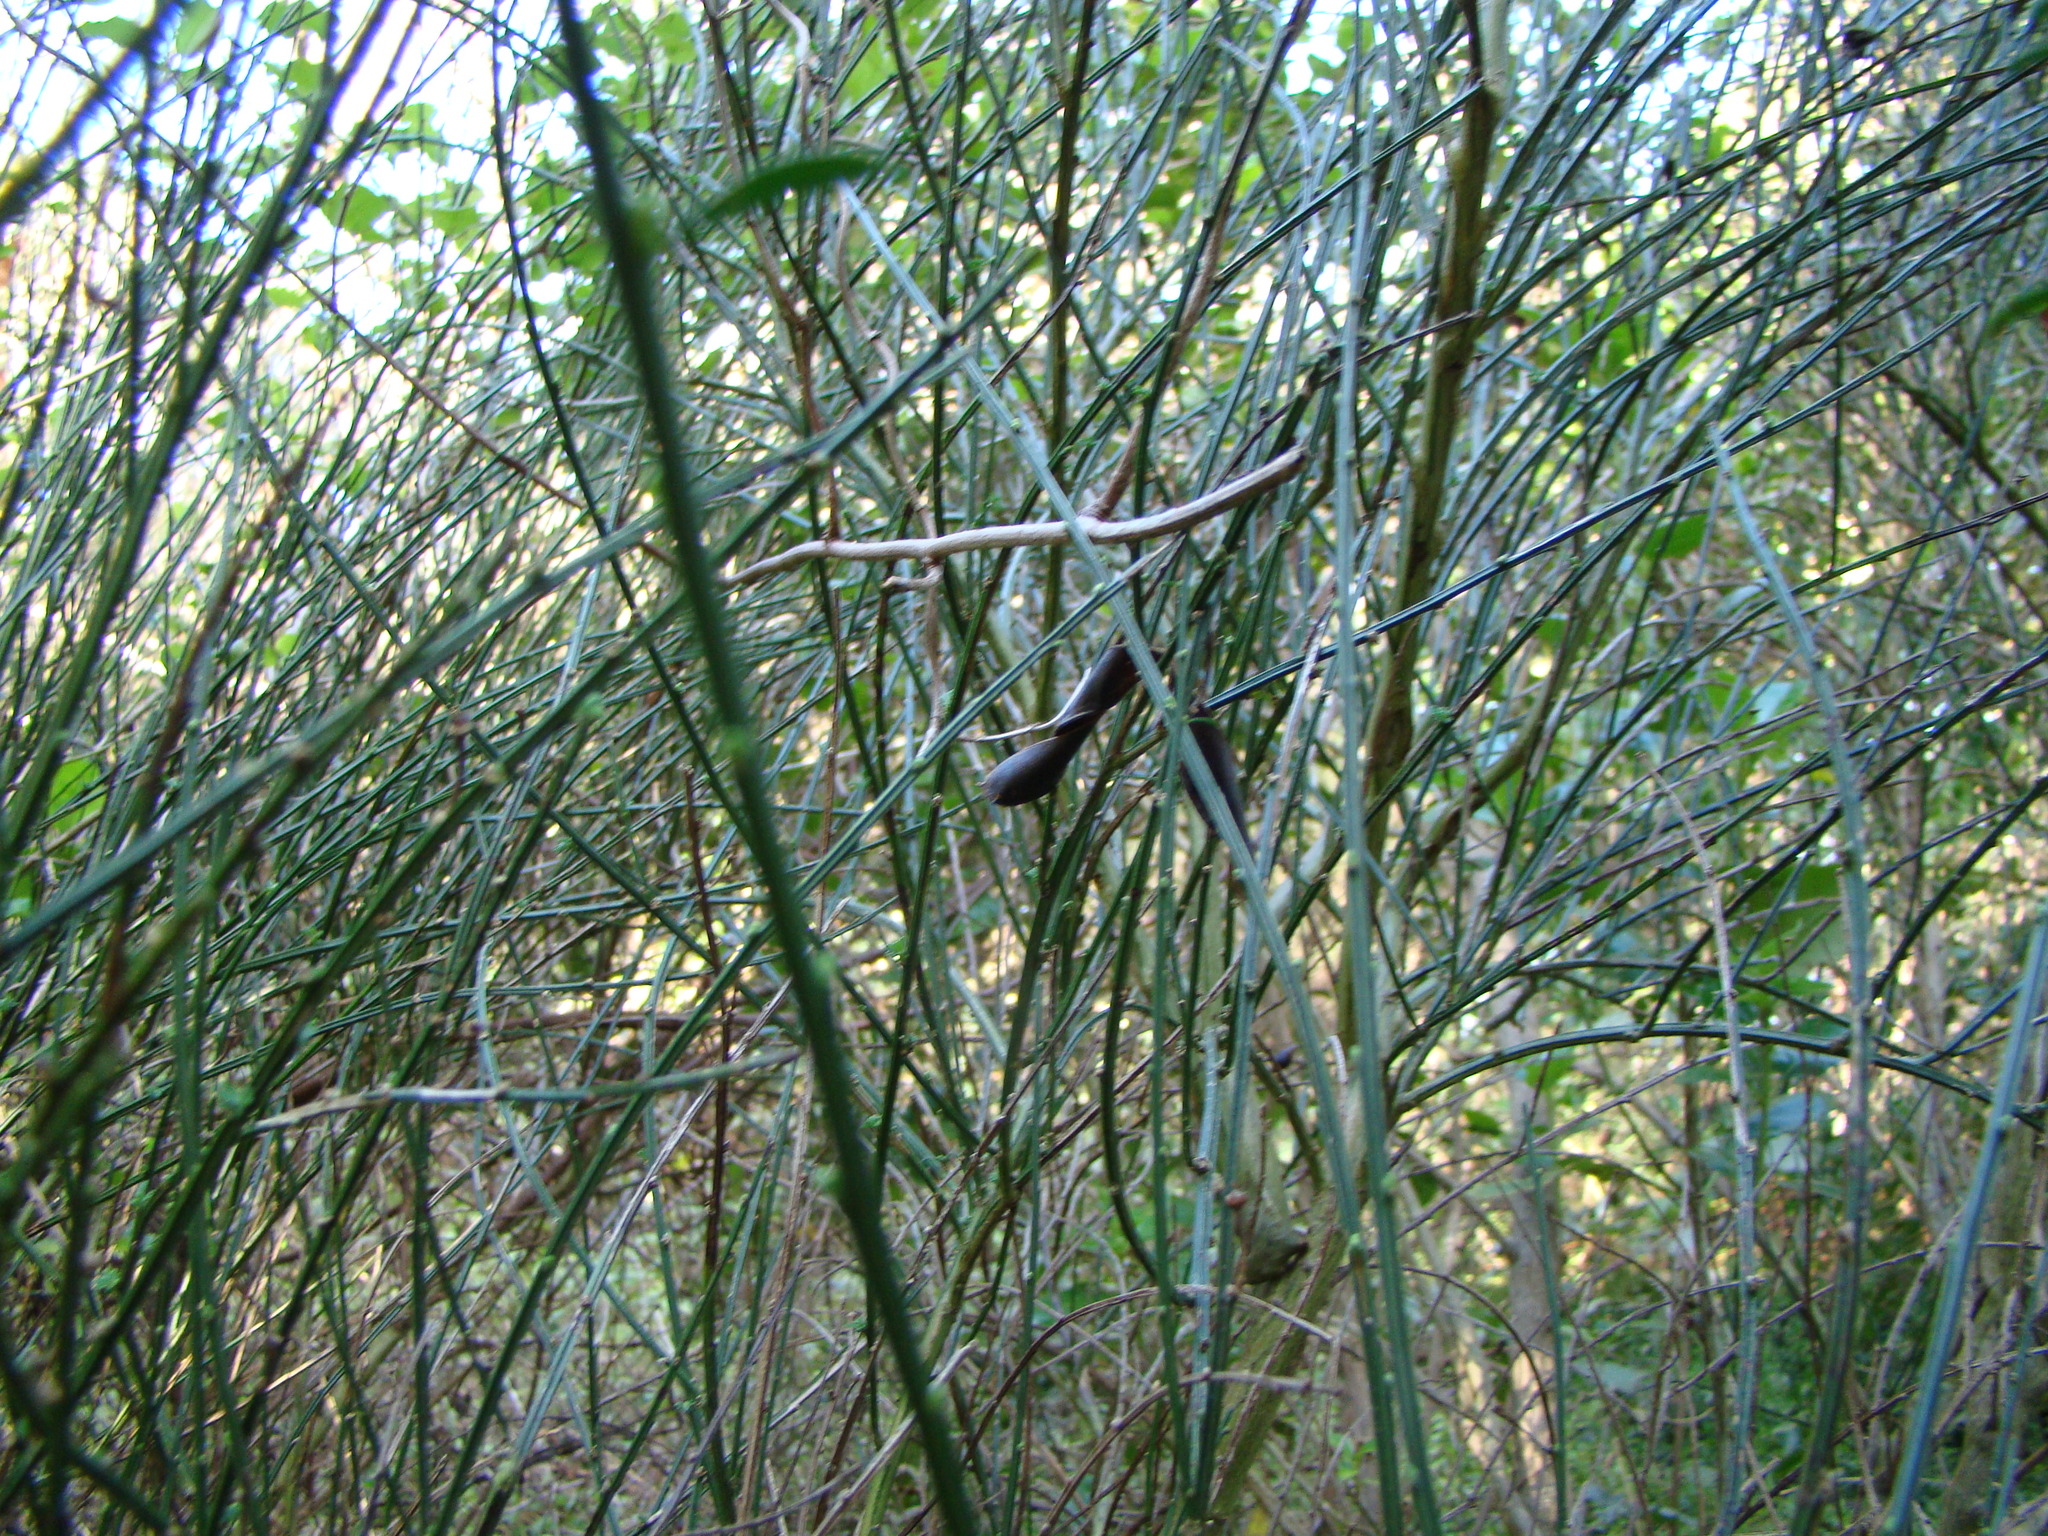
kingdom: Plantae
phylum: Tracheophyta
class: Magnoliopsida
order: Fabales
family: Fabaceae
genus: Cytisus
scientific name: Cytisus scoparius
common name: Scotch broom
